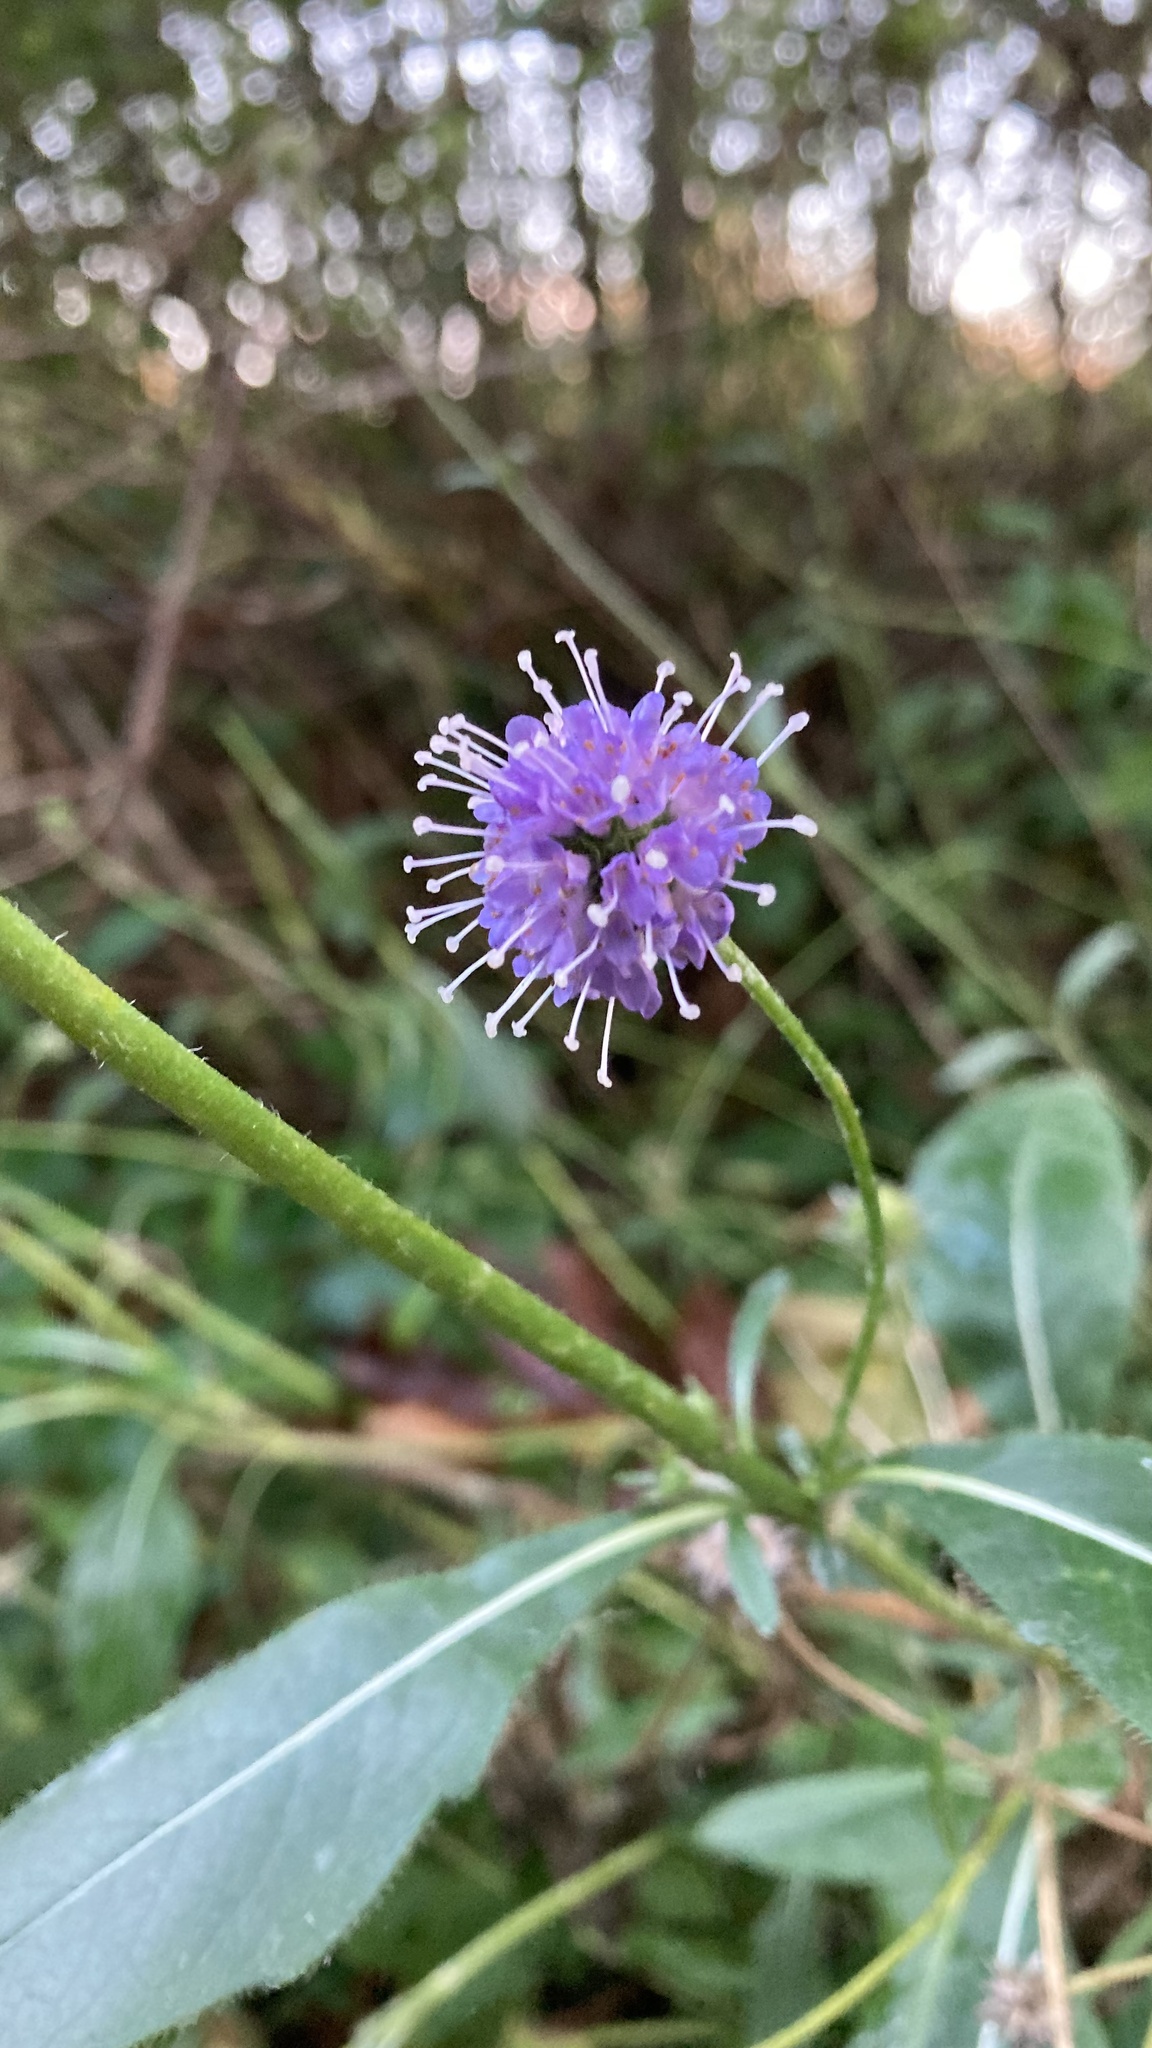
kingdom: Plantae
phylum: Tracheophyta
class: Magnoliopsida
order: Dipsacales
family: Caprifoliaceae
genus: Succisa
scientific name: Succisa pratensis
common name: Devil's-bit
